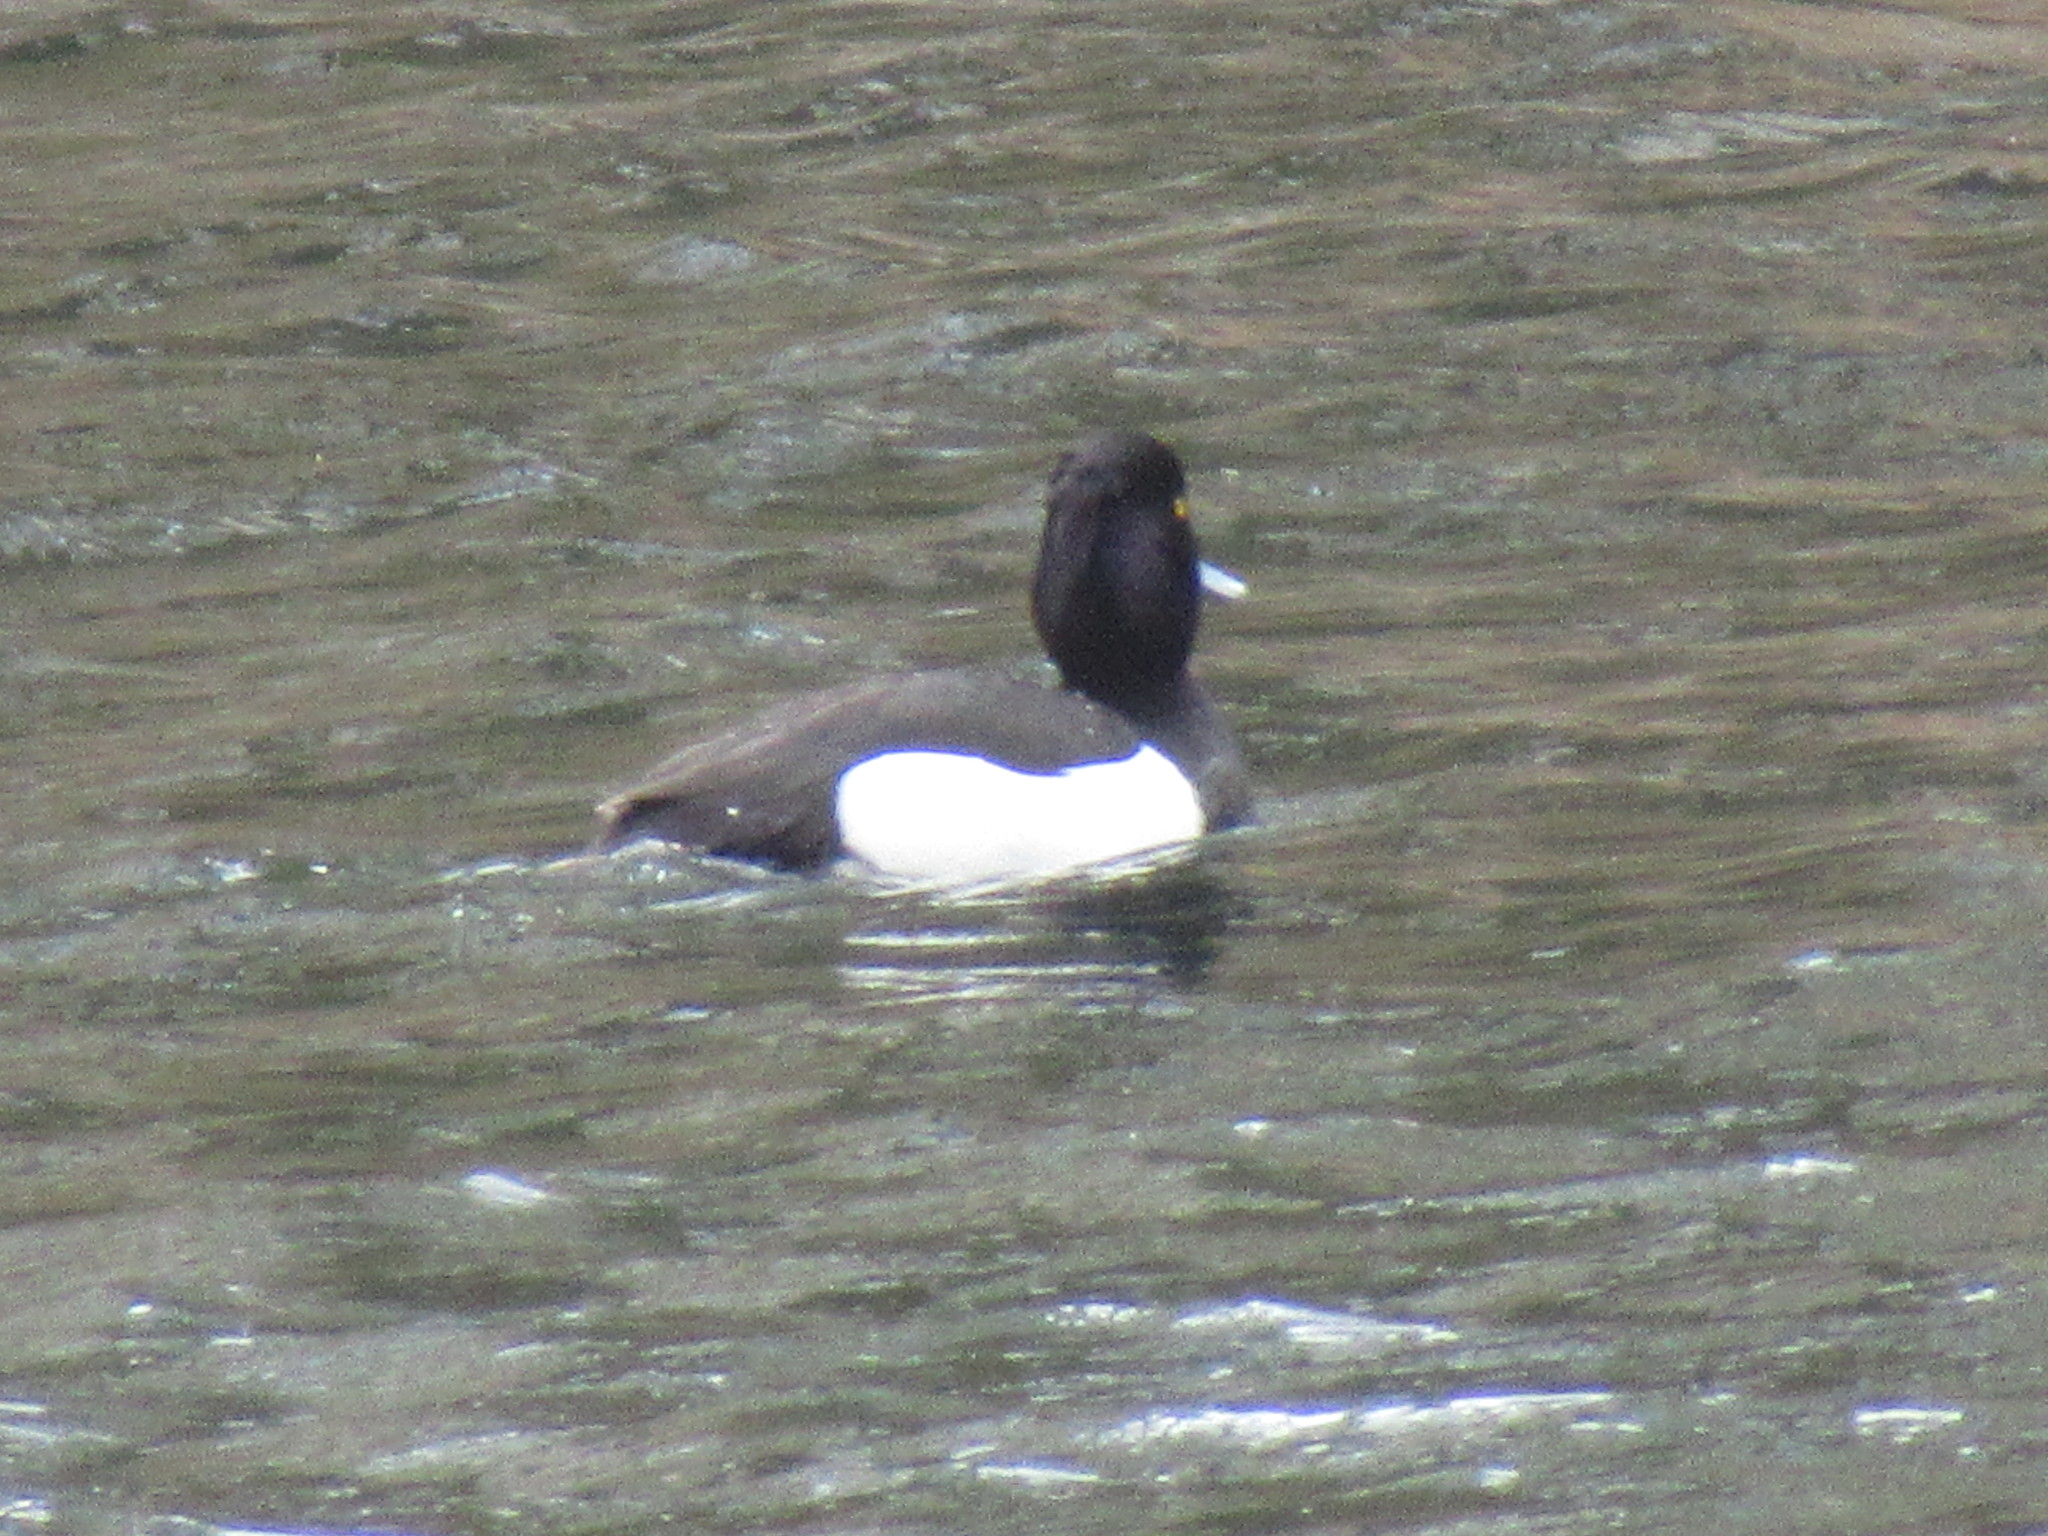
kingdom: Animalia
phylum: Chordata
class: Aves
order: Anseriformes
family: Anatidae
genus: Aythya
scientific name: Aythya fuligula
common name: Tufted duck
